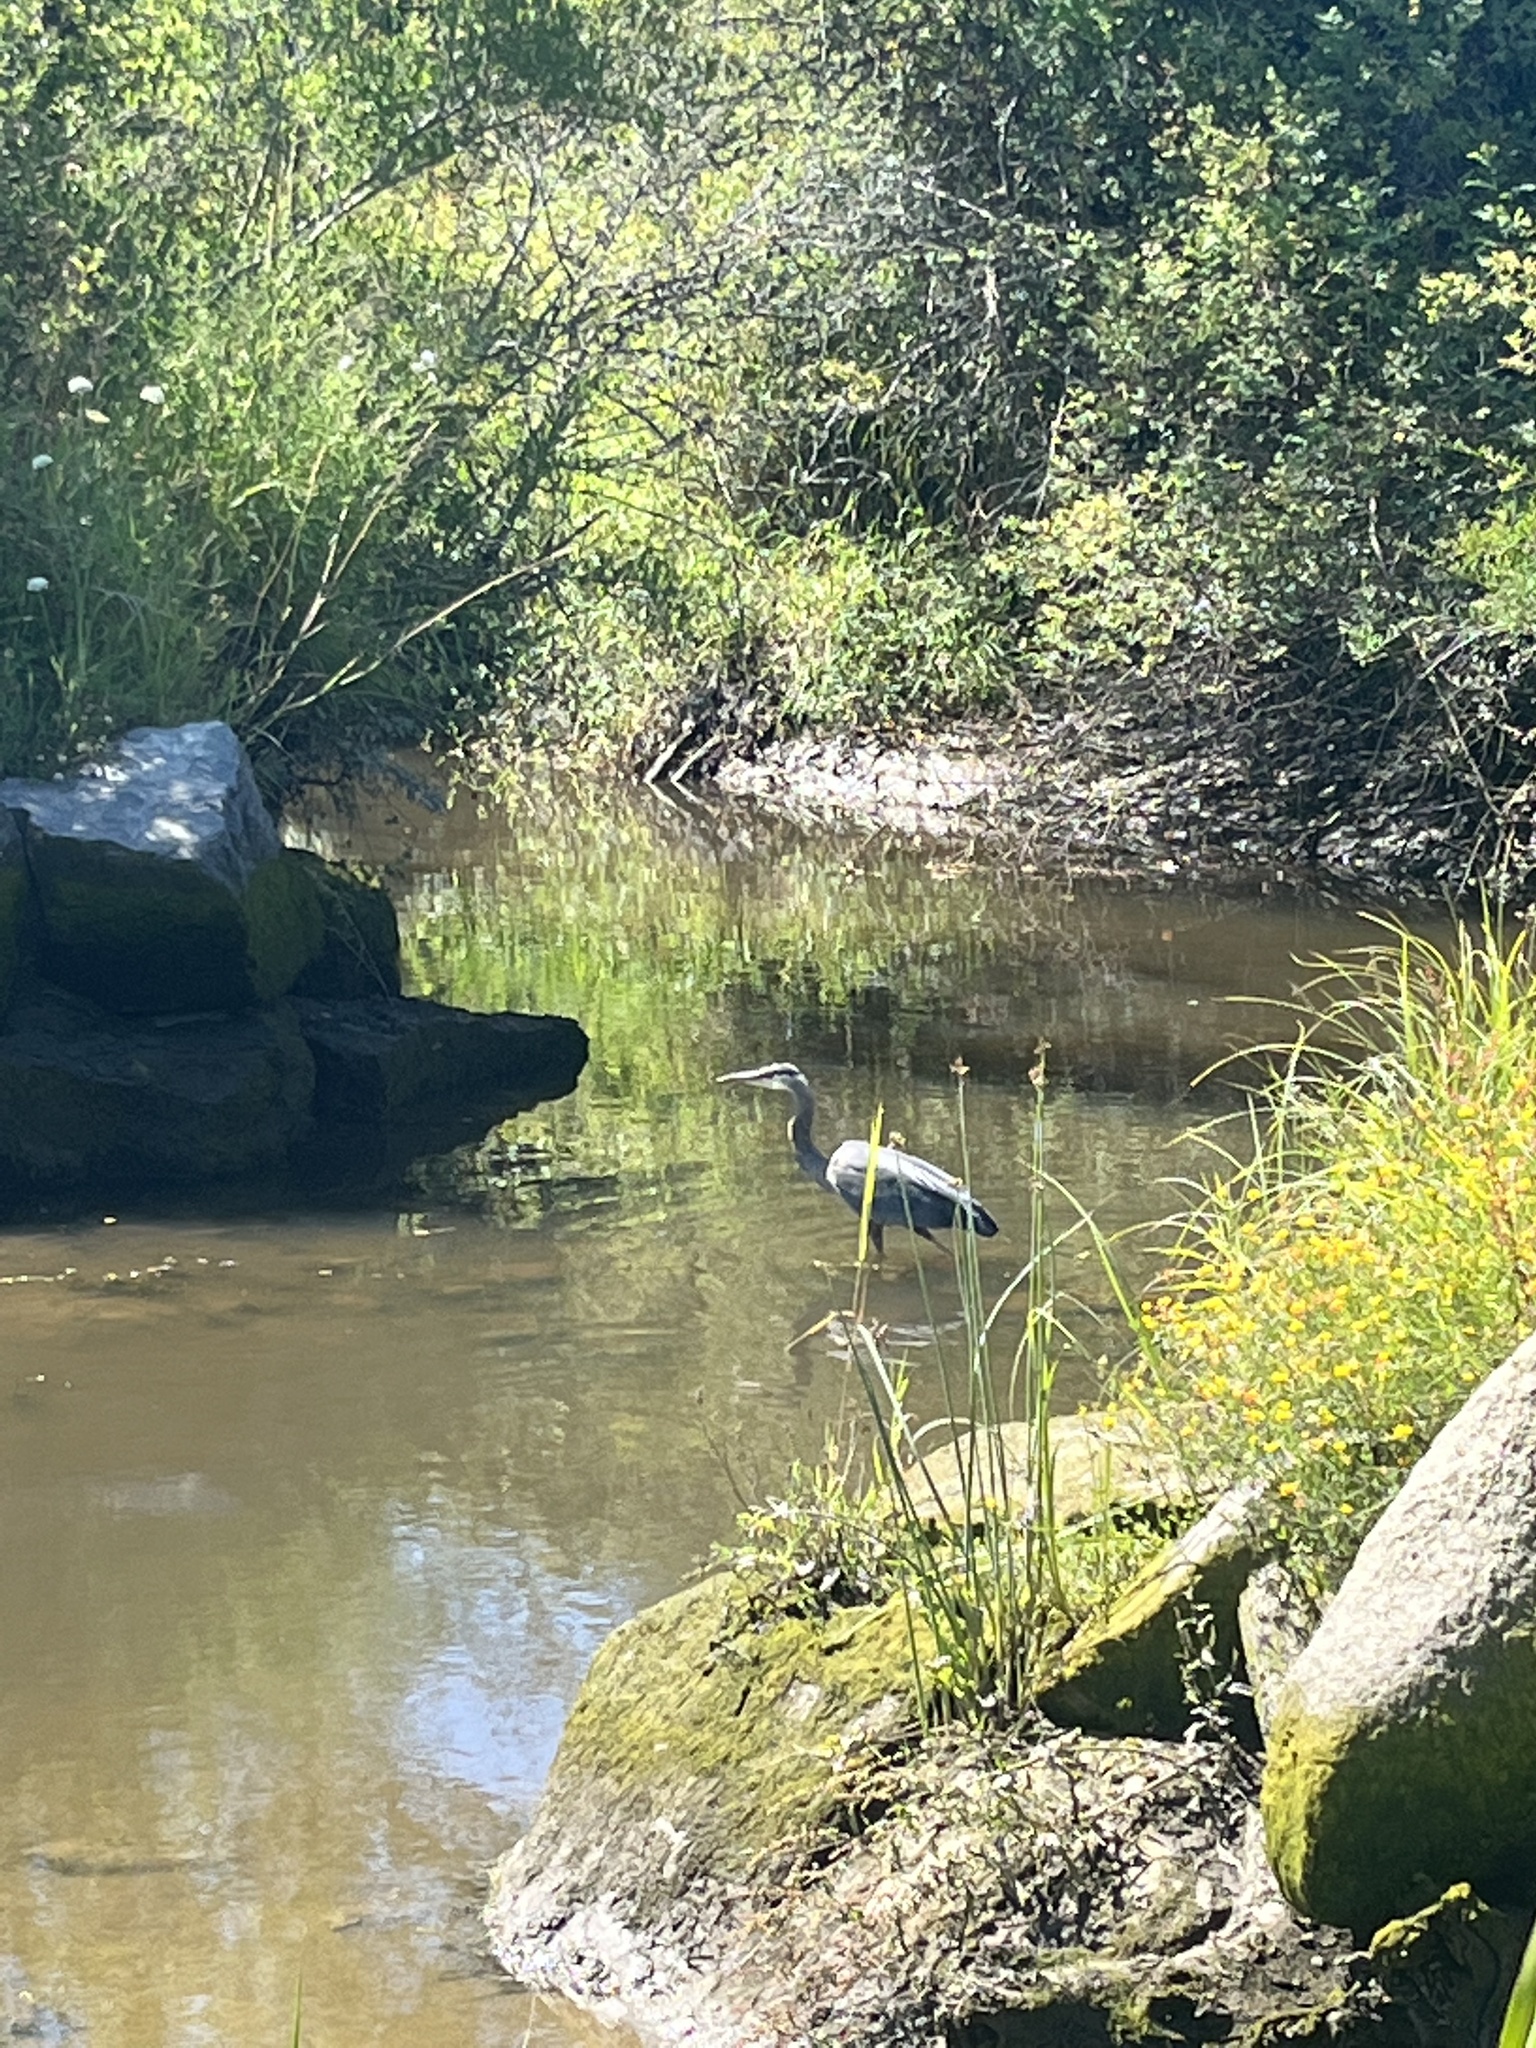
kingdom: Animalia
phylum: Chordata
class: Aves
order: Pelecaniformes
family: Ardeidae
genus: Ardea
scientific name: Ardea herodias
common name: Great blue heron
